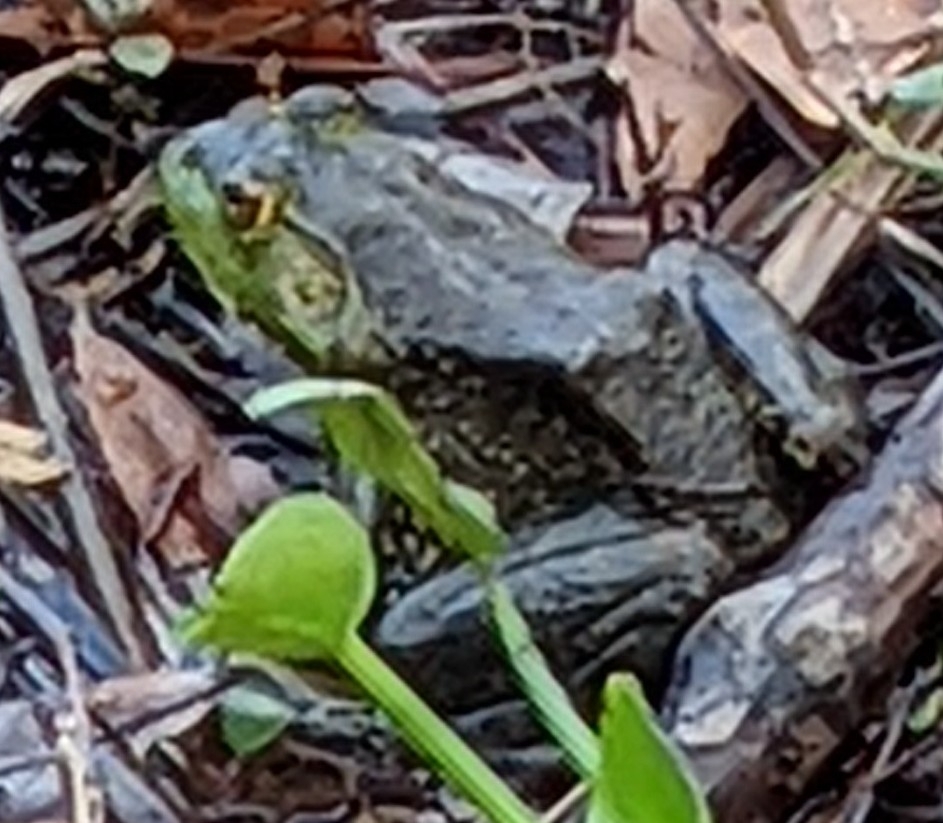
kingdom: Animalia
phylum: Chordata
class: Amphibia
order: Anura
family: Ranidae
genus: Lithobates
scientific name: Lithobates catesbeianus
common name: American bullfrog
